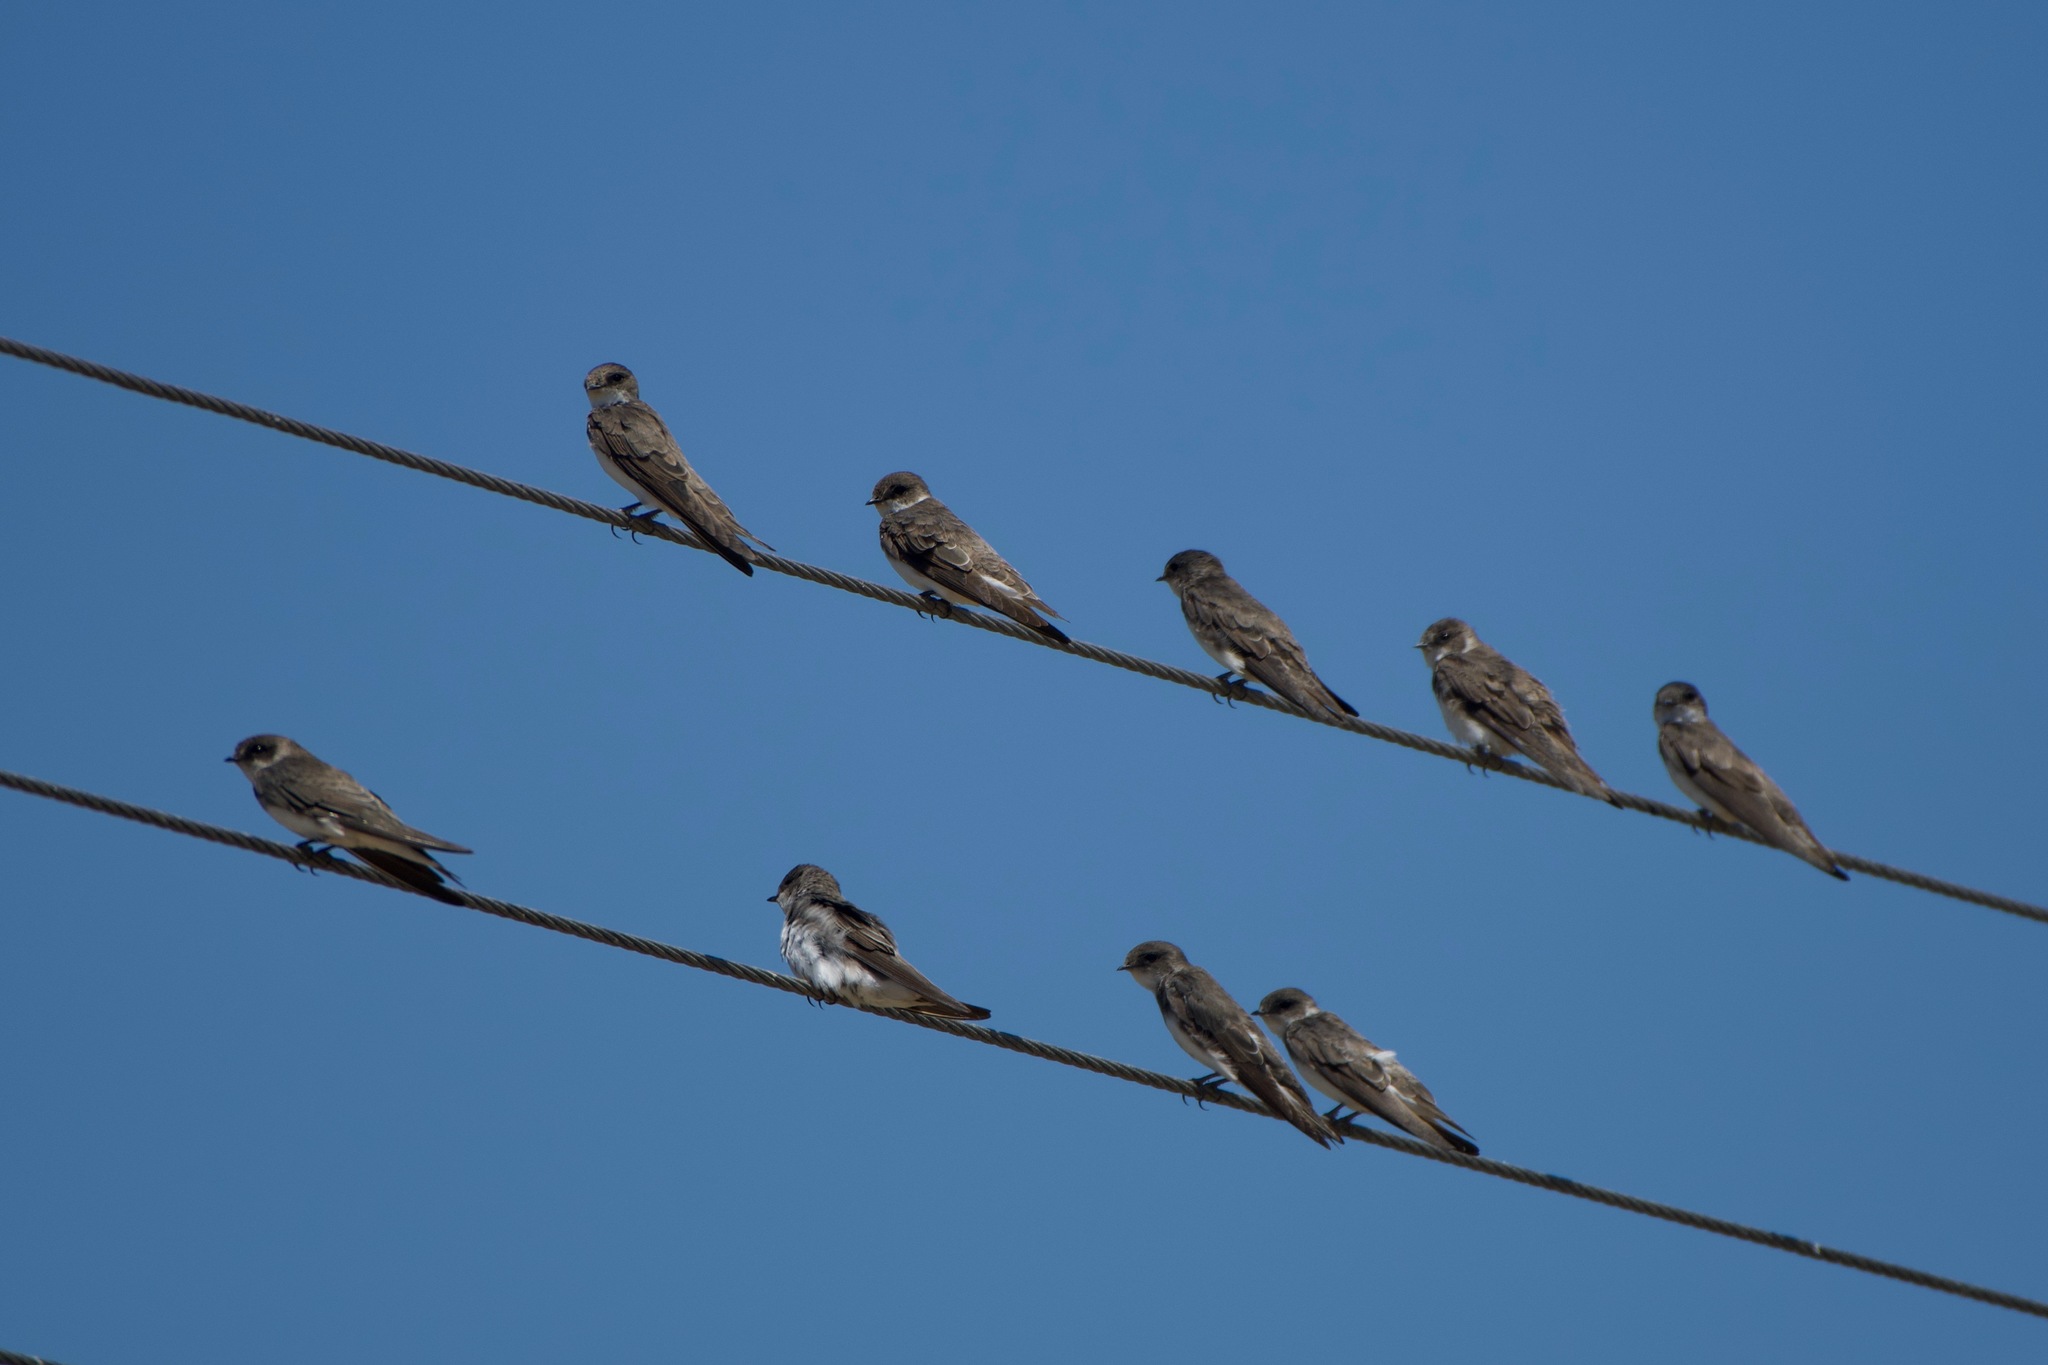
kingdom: Animalia
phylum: Chordata
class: Aves
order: Passeriformes
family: Hirundinidae
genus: Riparia
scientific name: Riparia riparia
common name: Sand martin
